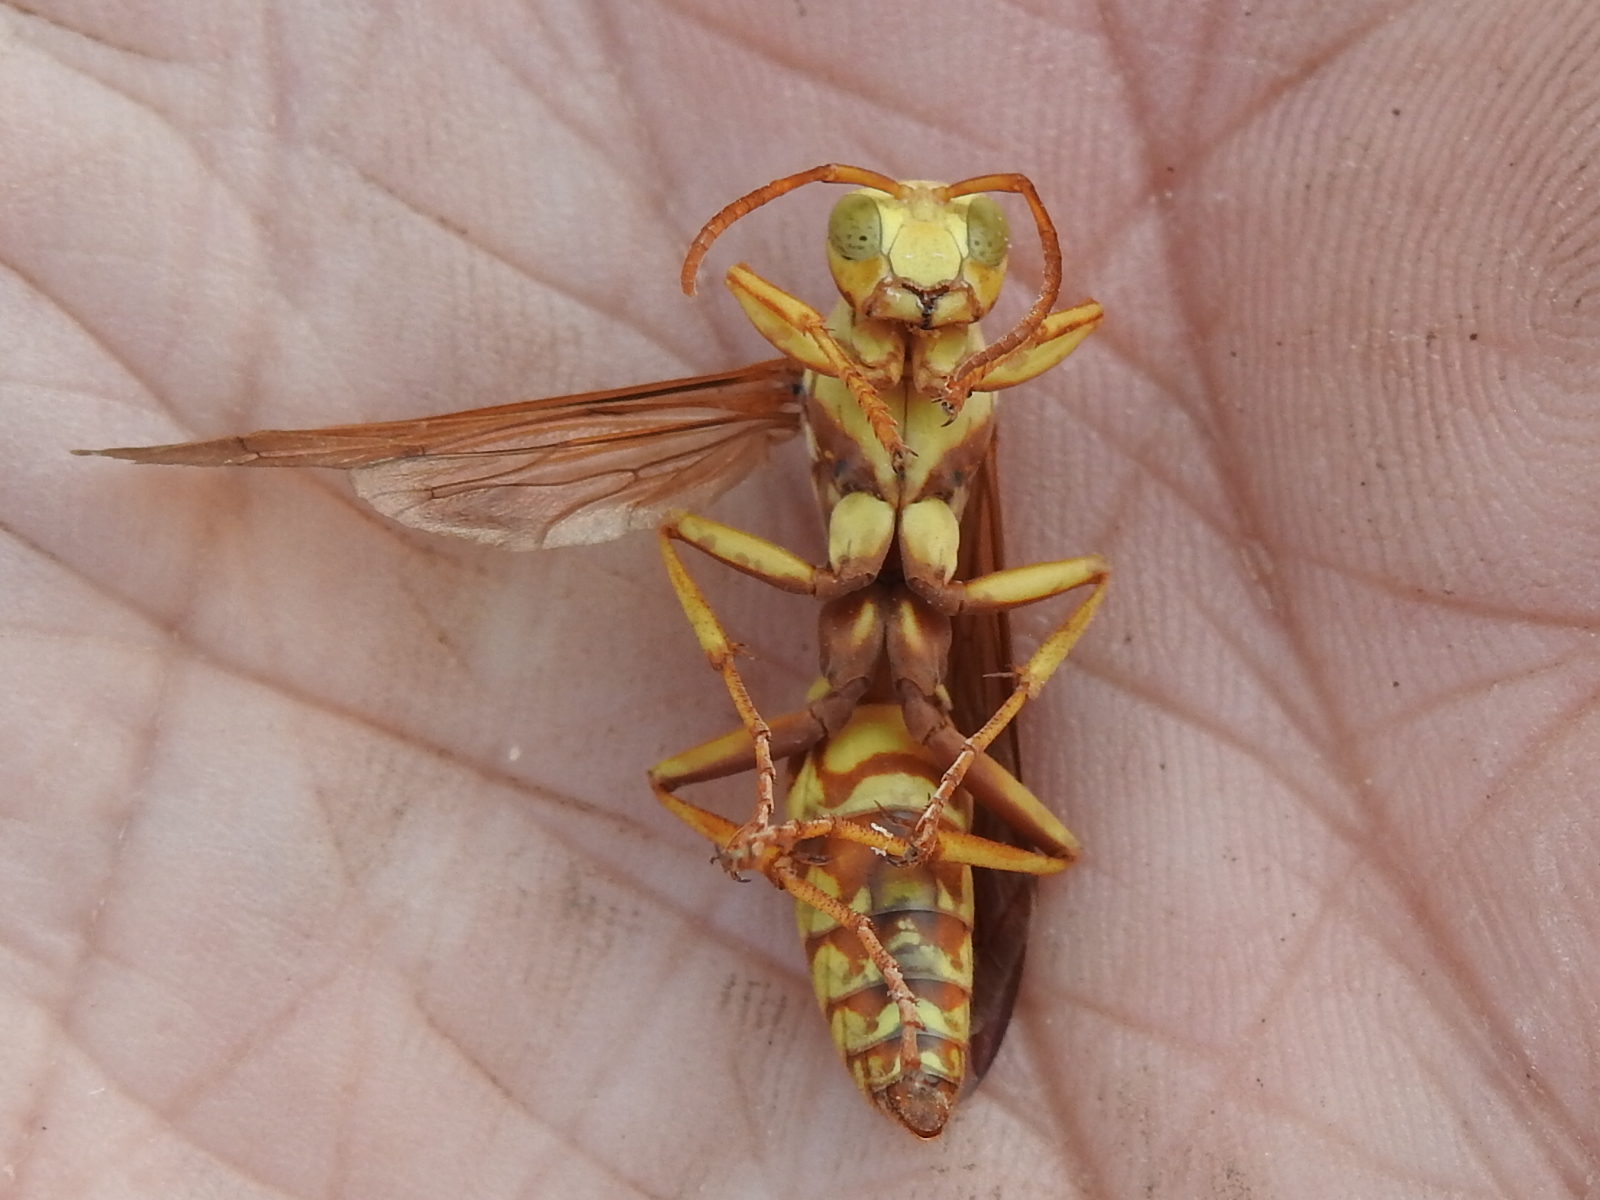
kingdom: Animalia
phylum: Arthropoda
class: Insecta
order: Hymenoptera
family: Eumenidae
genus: Polistes
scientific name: Polistes apachus
